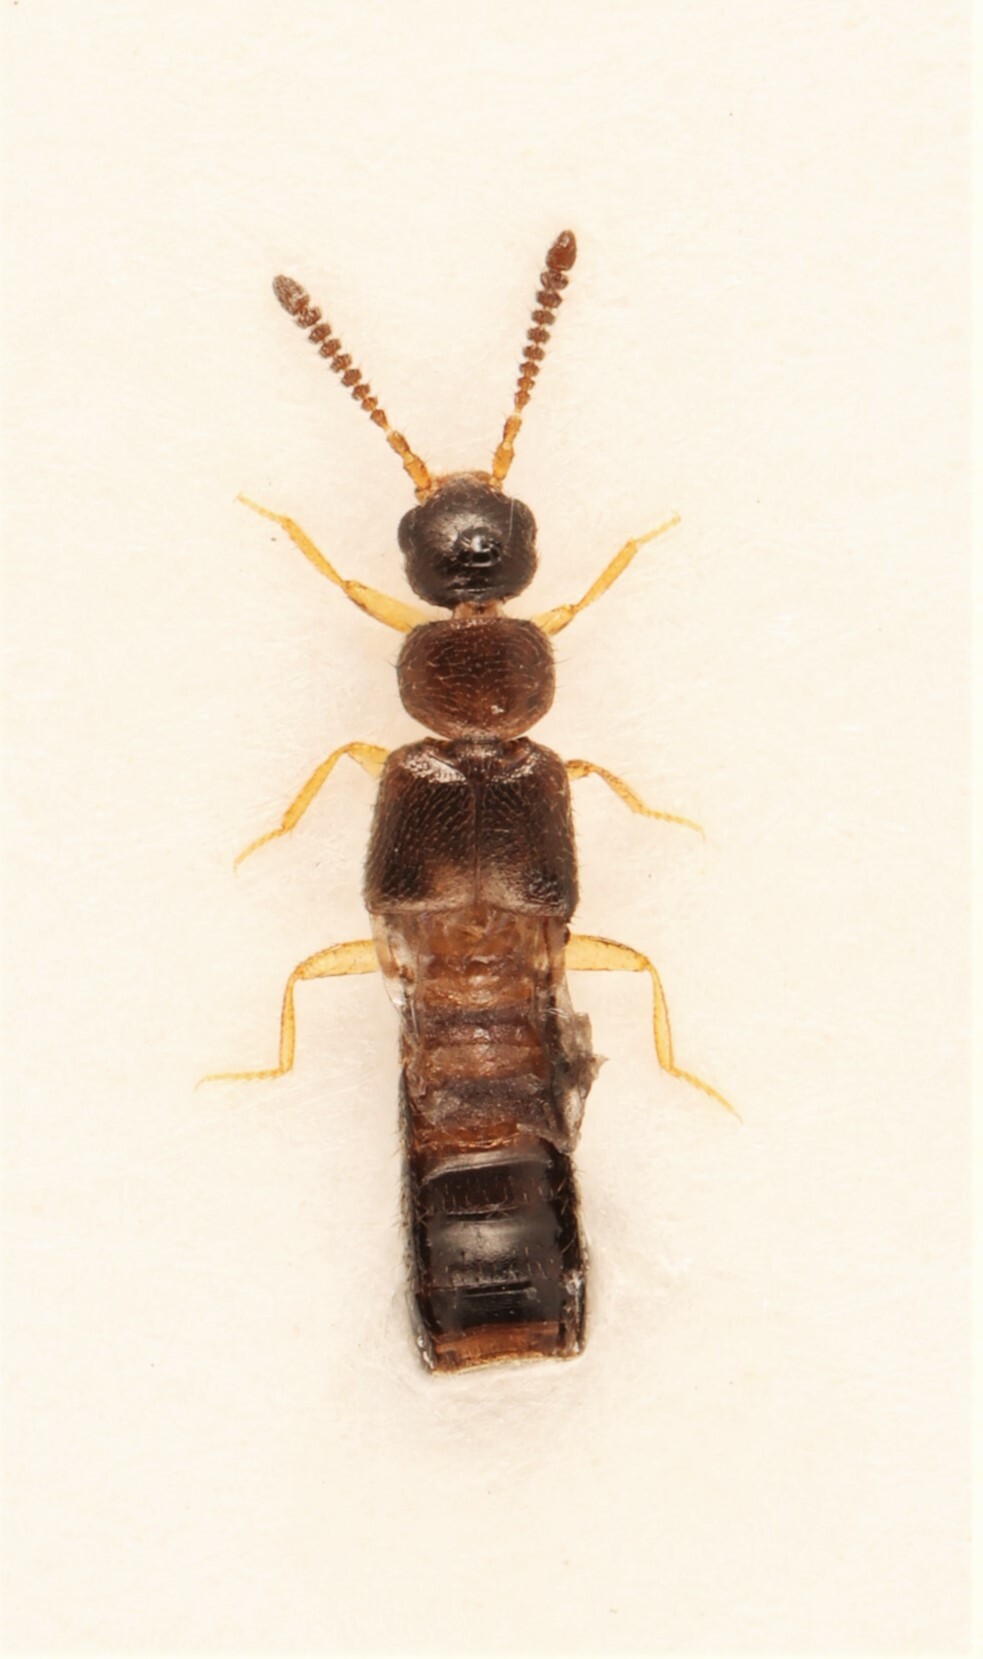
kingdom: Animalia
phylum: Arthropoda
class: Insecta
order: Coleoptera
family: Staphylinidae
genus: Atheta
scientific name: Atheta particula
